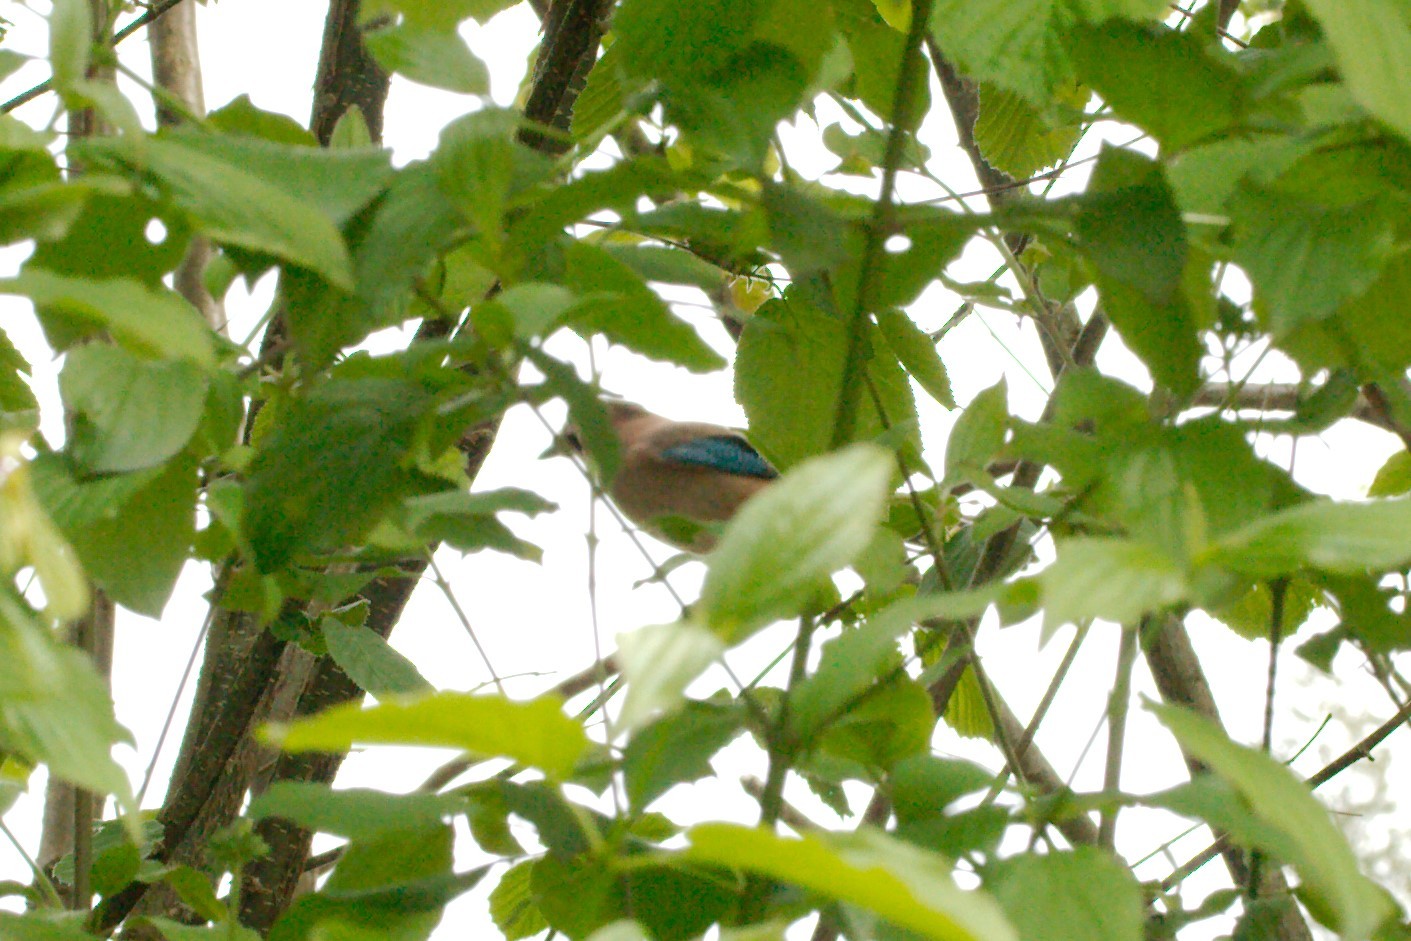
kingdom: Animalia
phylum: Chordata
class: Aves
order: Passeriformes
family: Corvidae
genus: Garrulus
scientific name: Garrulus glandarius
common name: Eurasian jay
